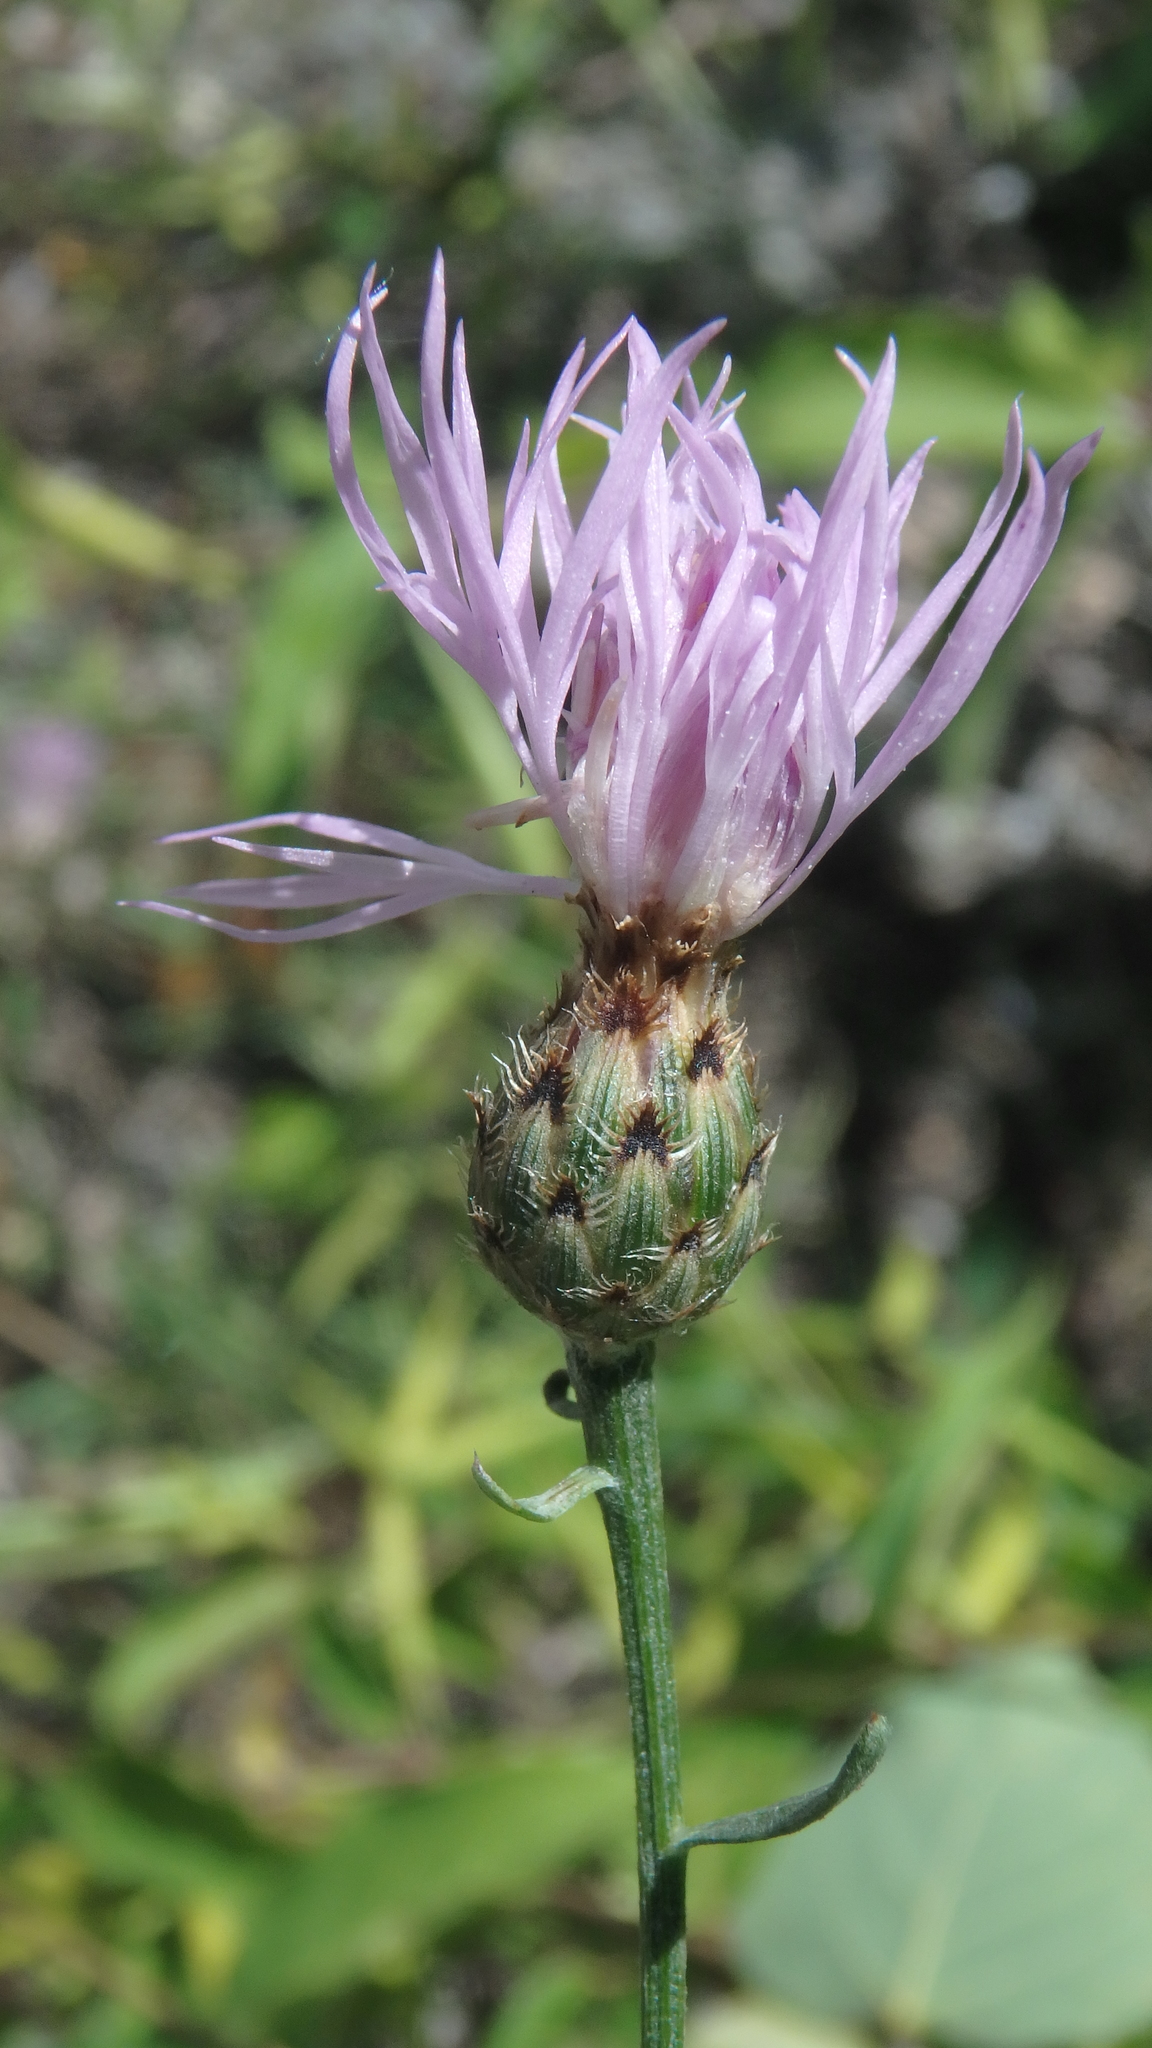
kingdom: Plantae
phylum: Tracheophyta
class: Magnoliopsida
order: Asterales
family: Asteraceae
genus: Centaurea
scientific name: Centaurea stoebe
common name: Spotted knapweed
